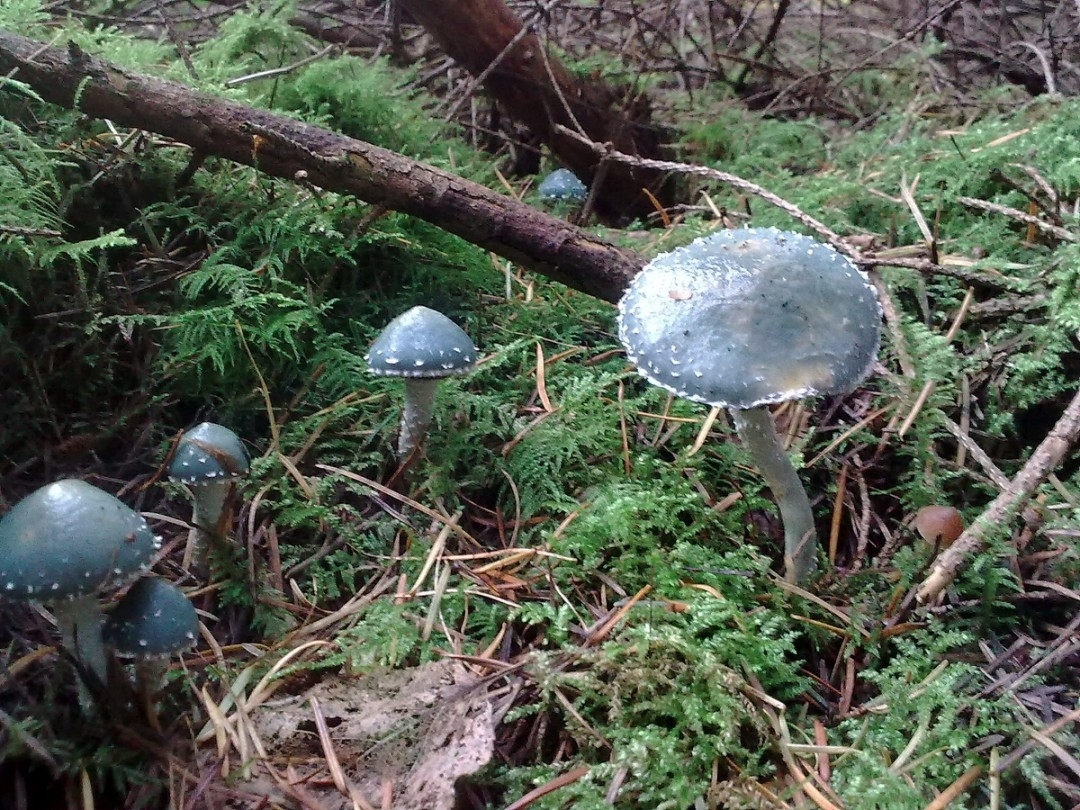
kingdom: Fungi
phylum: Basidiomycota
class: Agaricomycetes
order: Agaricales
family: Strophariaceae
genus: Stropharia
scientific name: Stropharia aeruginosa
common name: Verdigris roundhead
